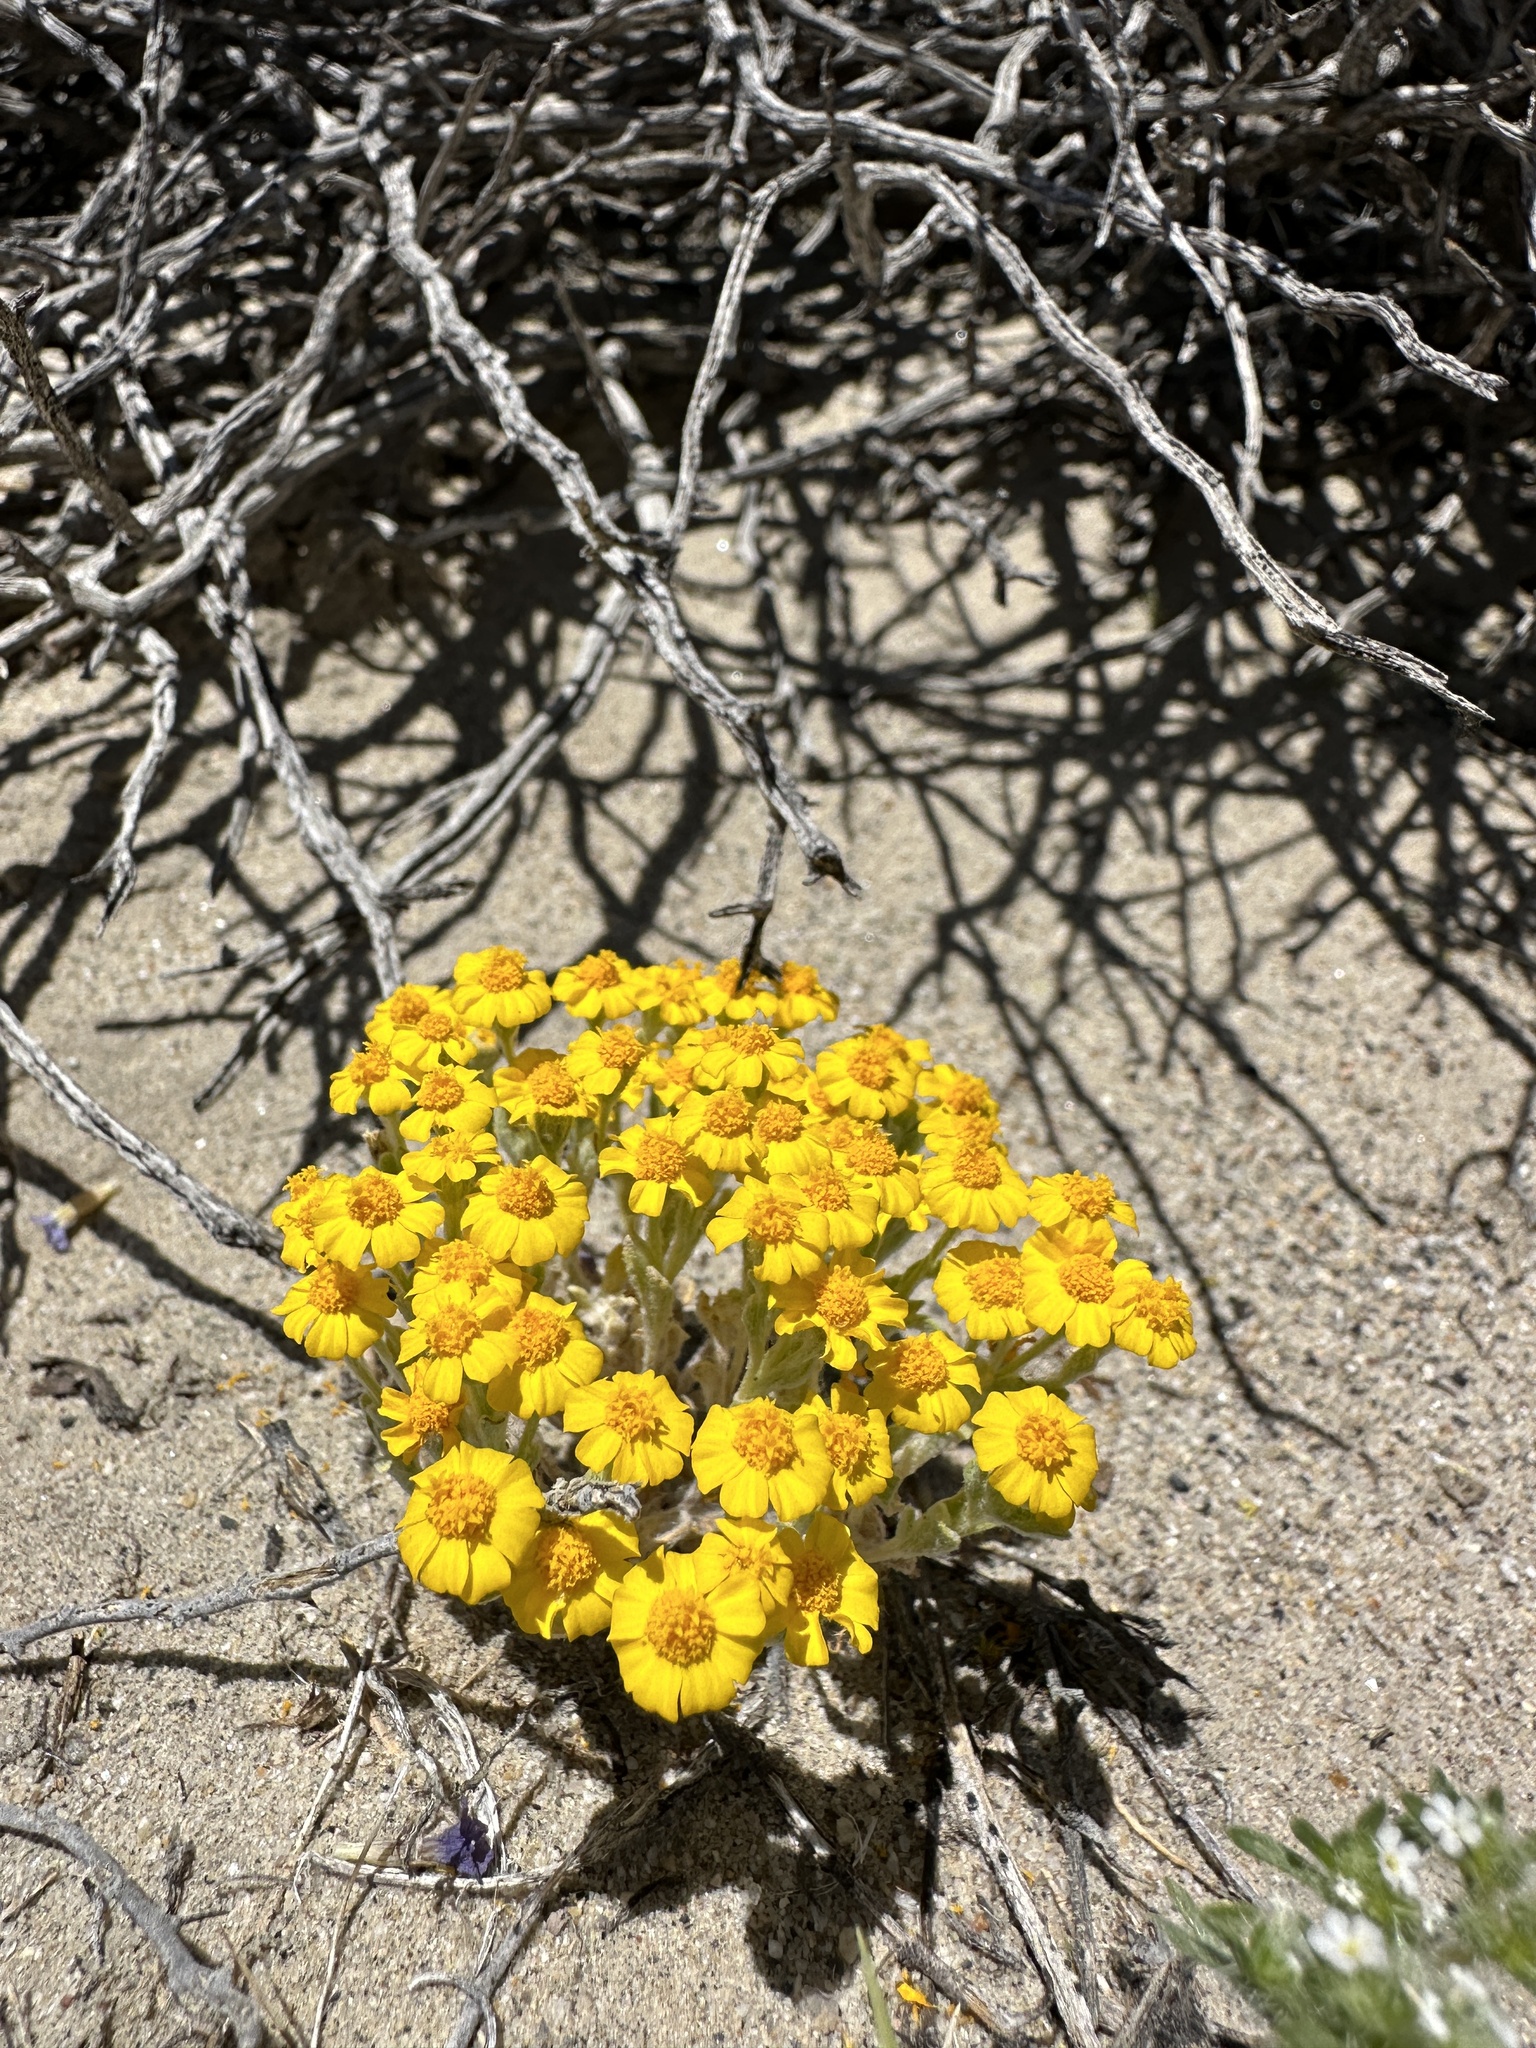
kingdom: Plantae
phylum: Tracheophyta
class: Magnoliopsida
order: Asterales
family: Asteraceae
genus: Eriophyllum
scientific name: Eriophyllum wallacei
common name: Wallace's woolly daisy
